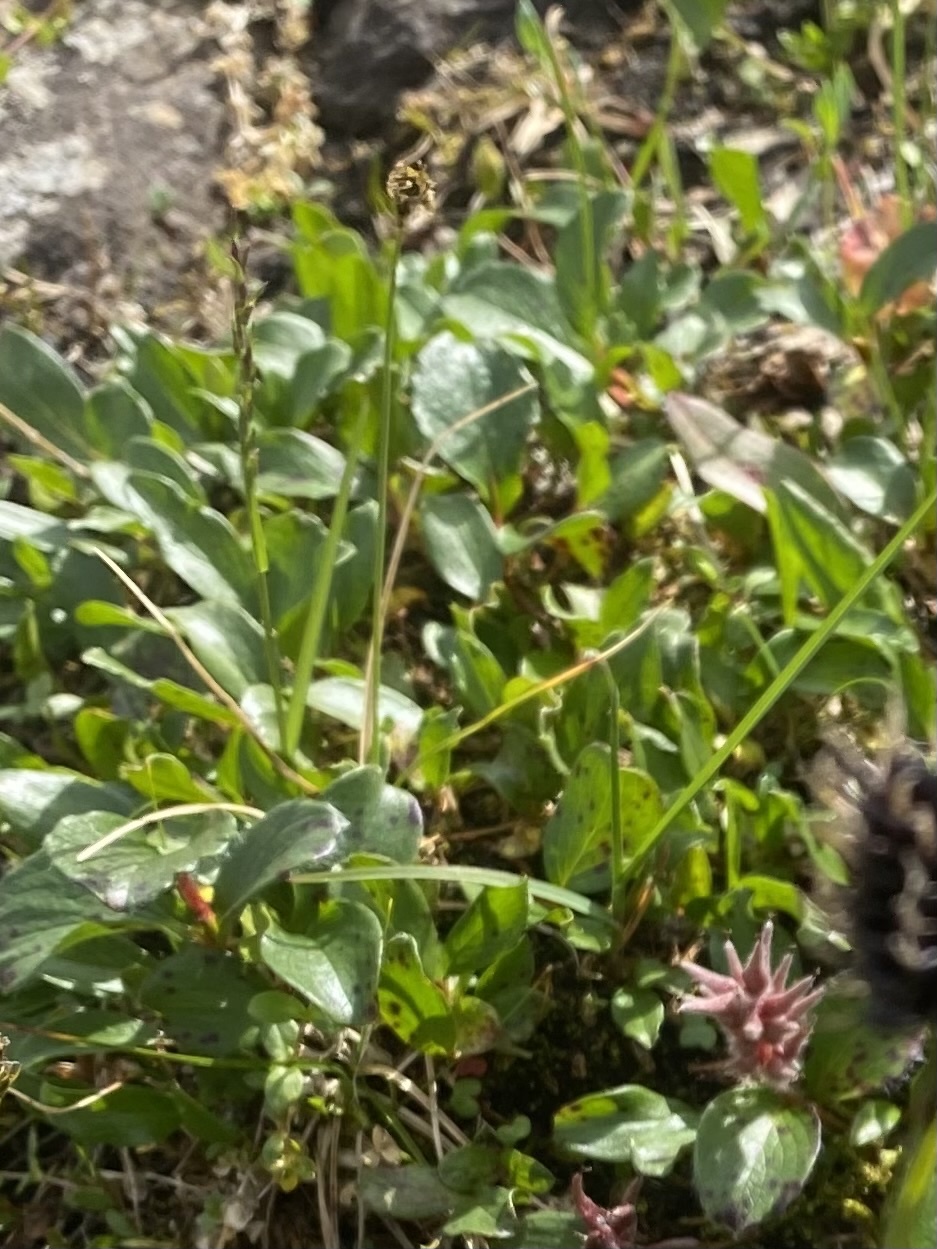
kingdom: Plantae
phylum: Tracheophyta
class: Liliopsida
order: Poales
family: Juncaceae
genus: Luzula
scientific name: Luzula
